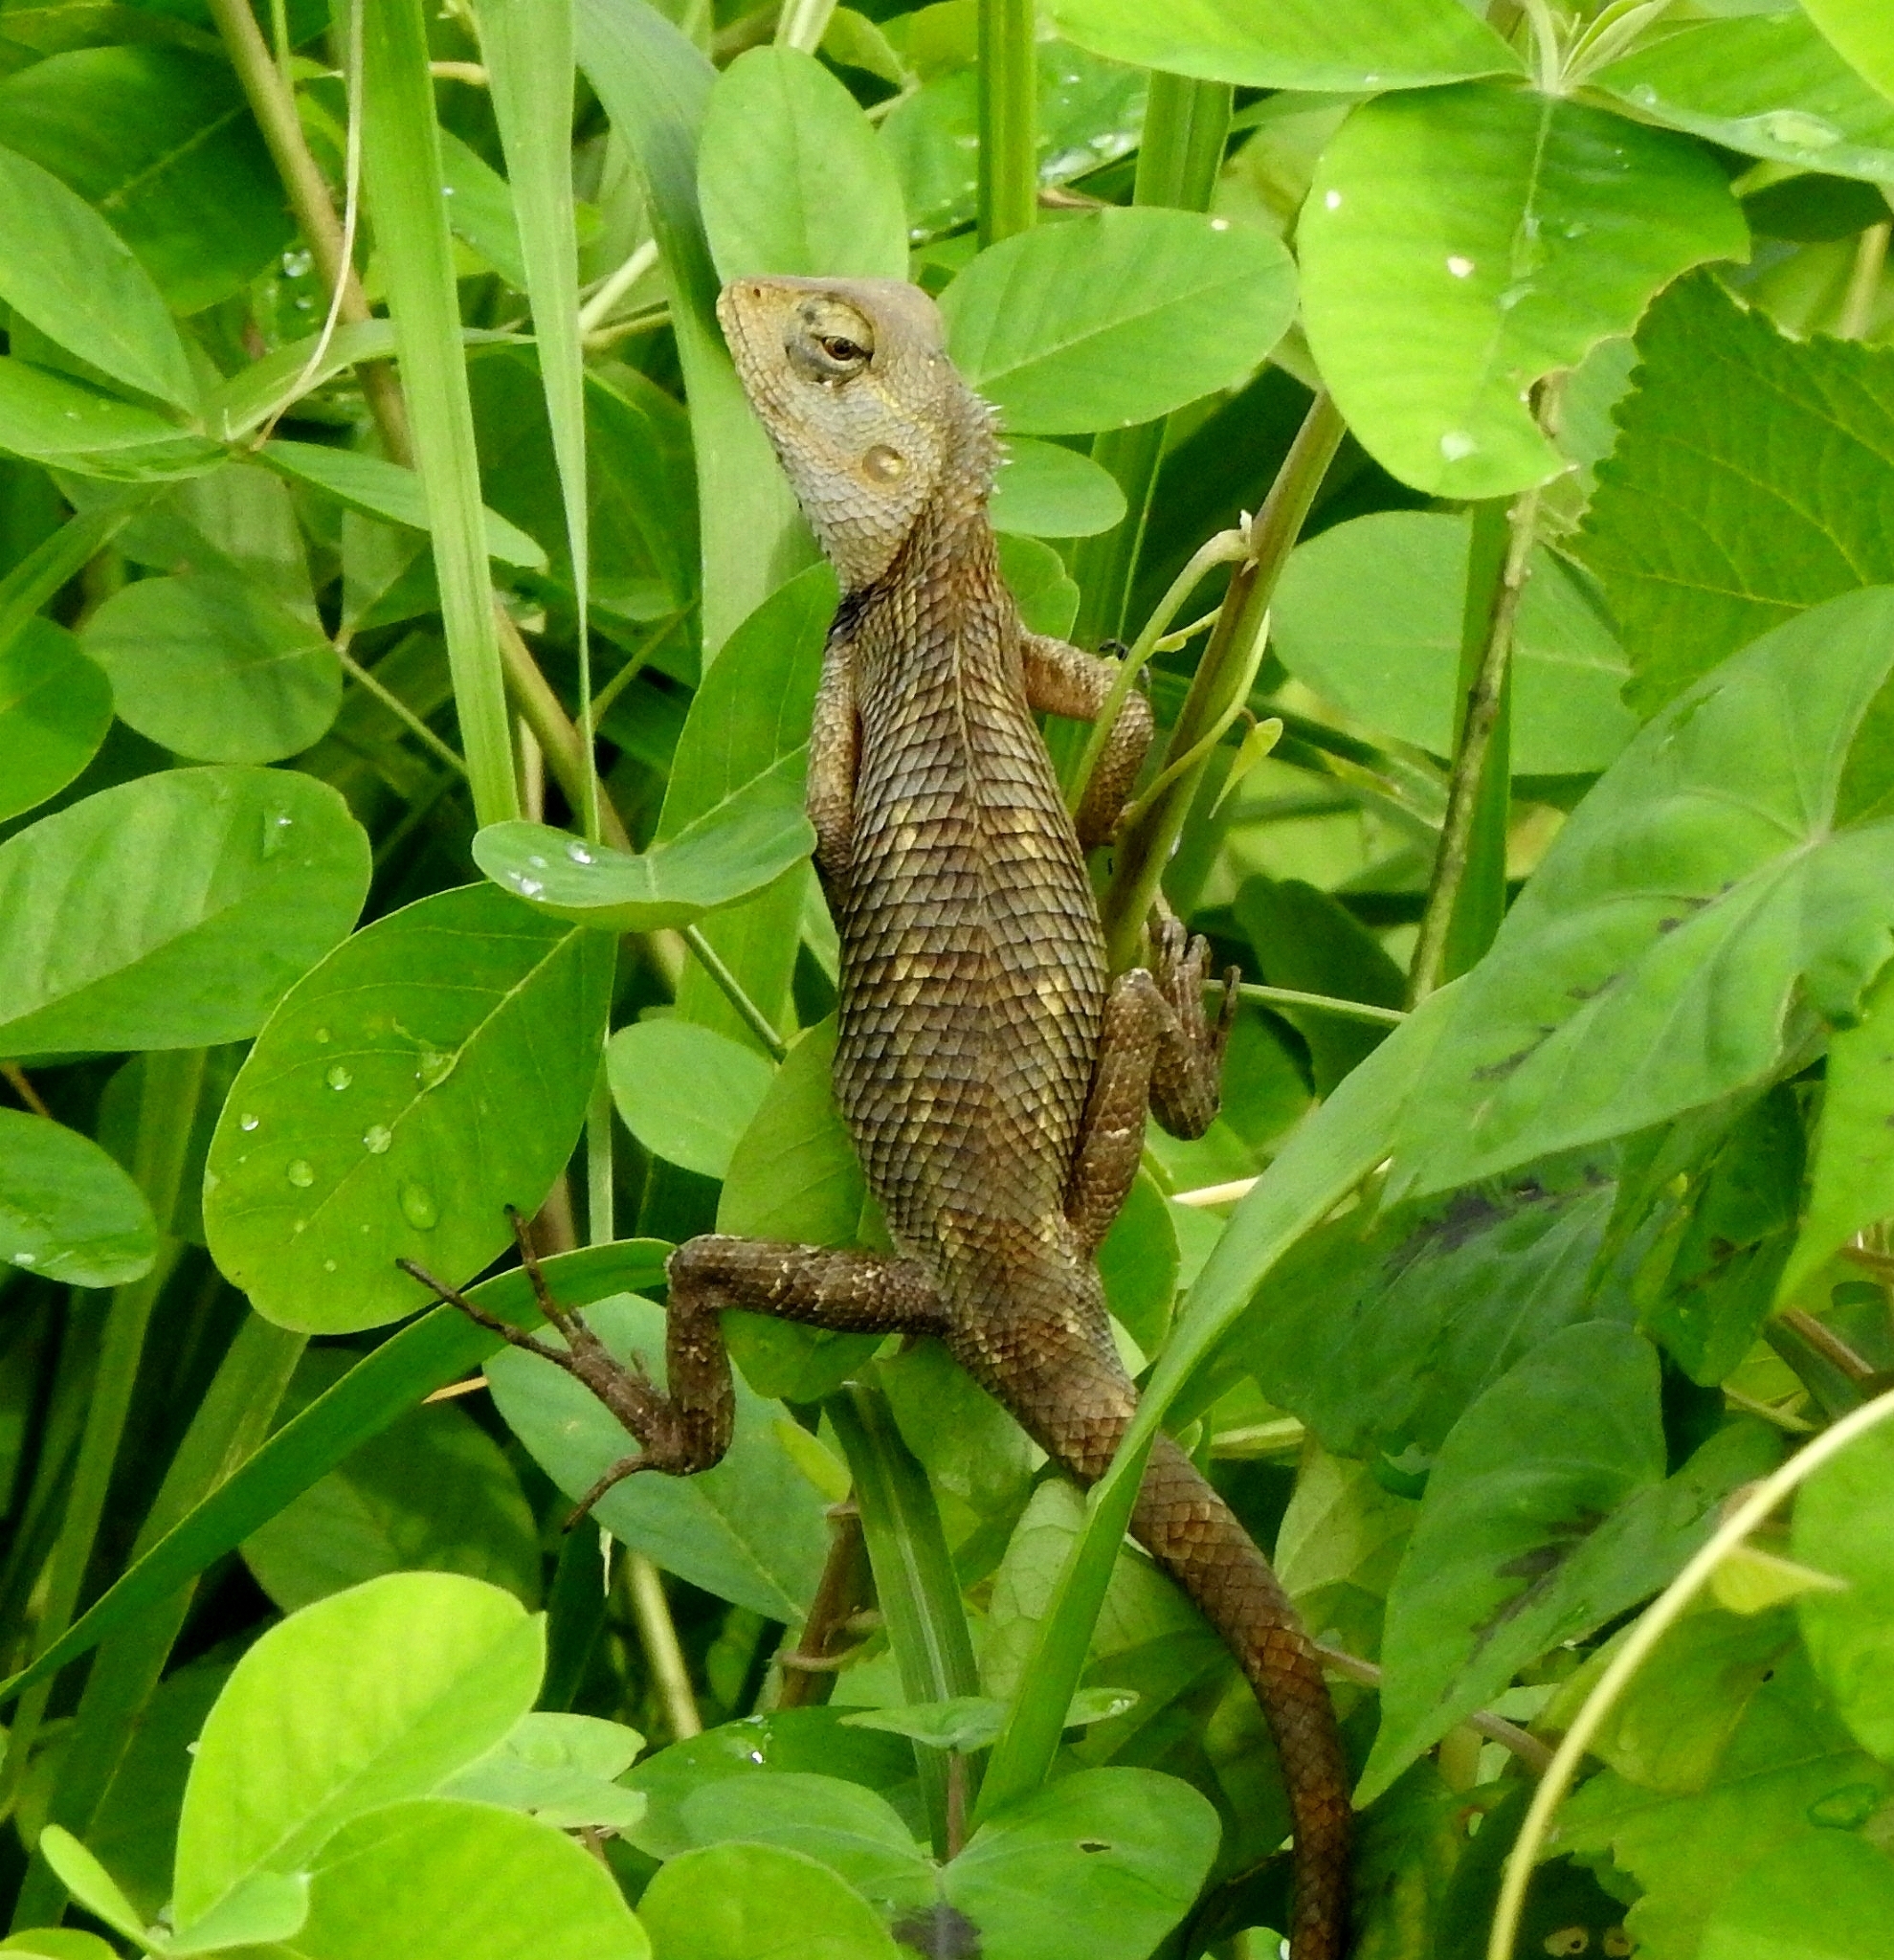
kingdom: Animalia
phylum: Chordata
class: Squamata
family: Agamidae
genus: Calotes
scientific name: Calotes versicolor
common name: Oriental garden lizard
